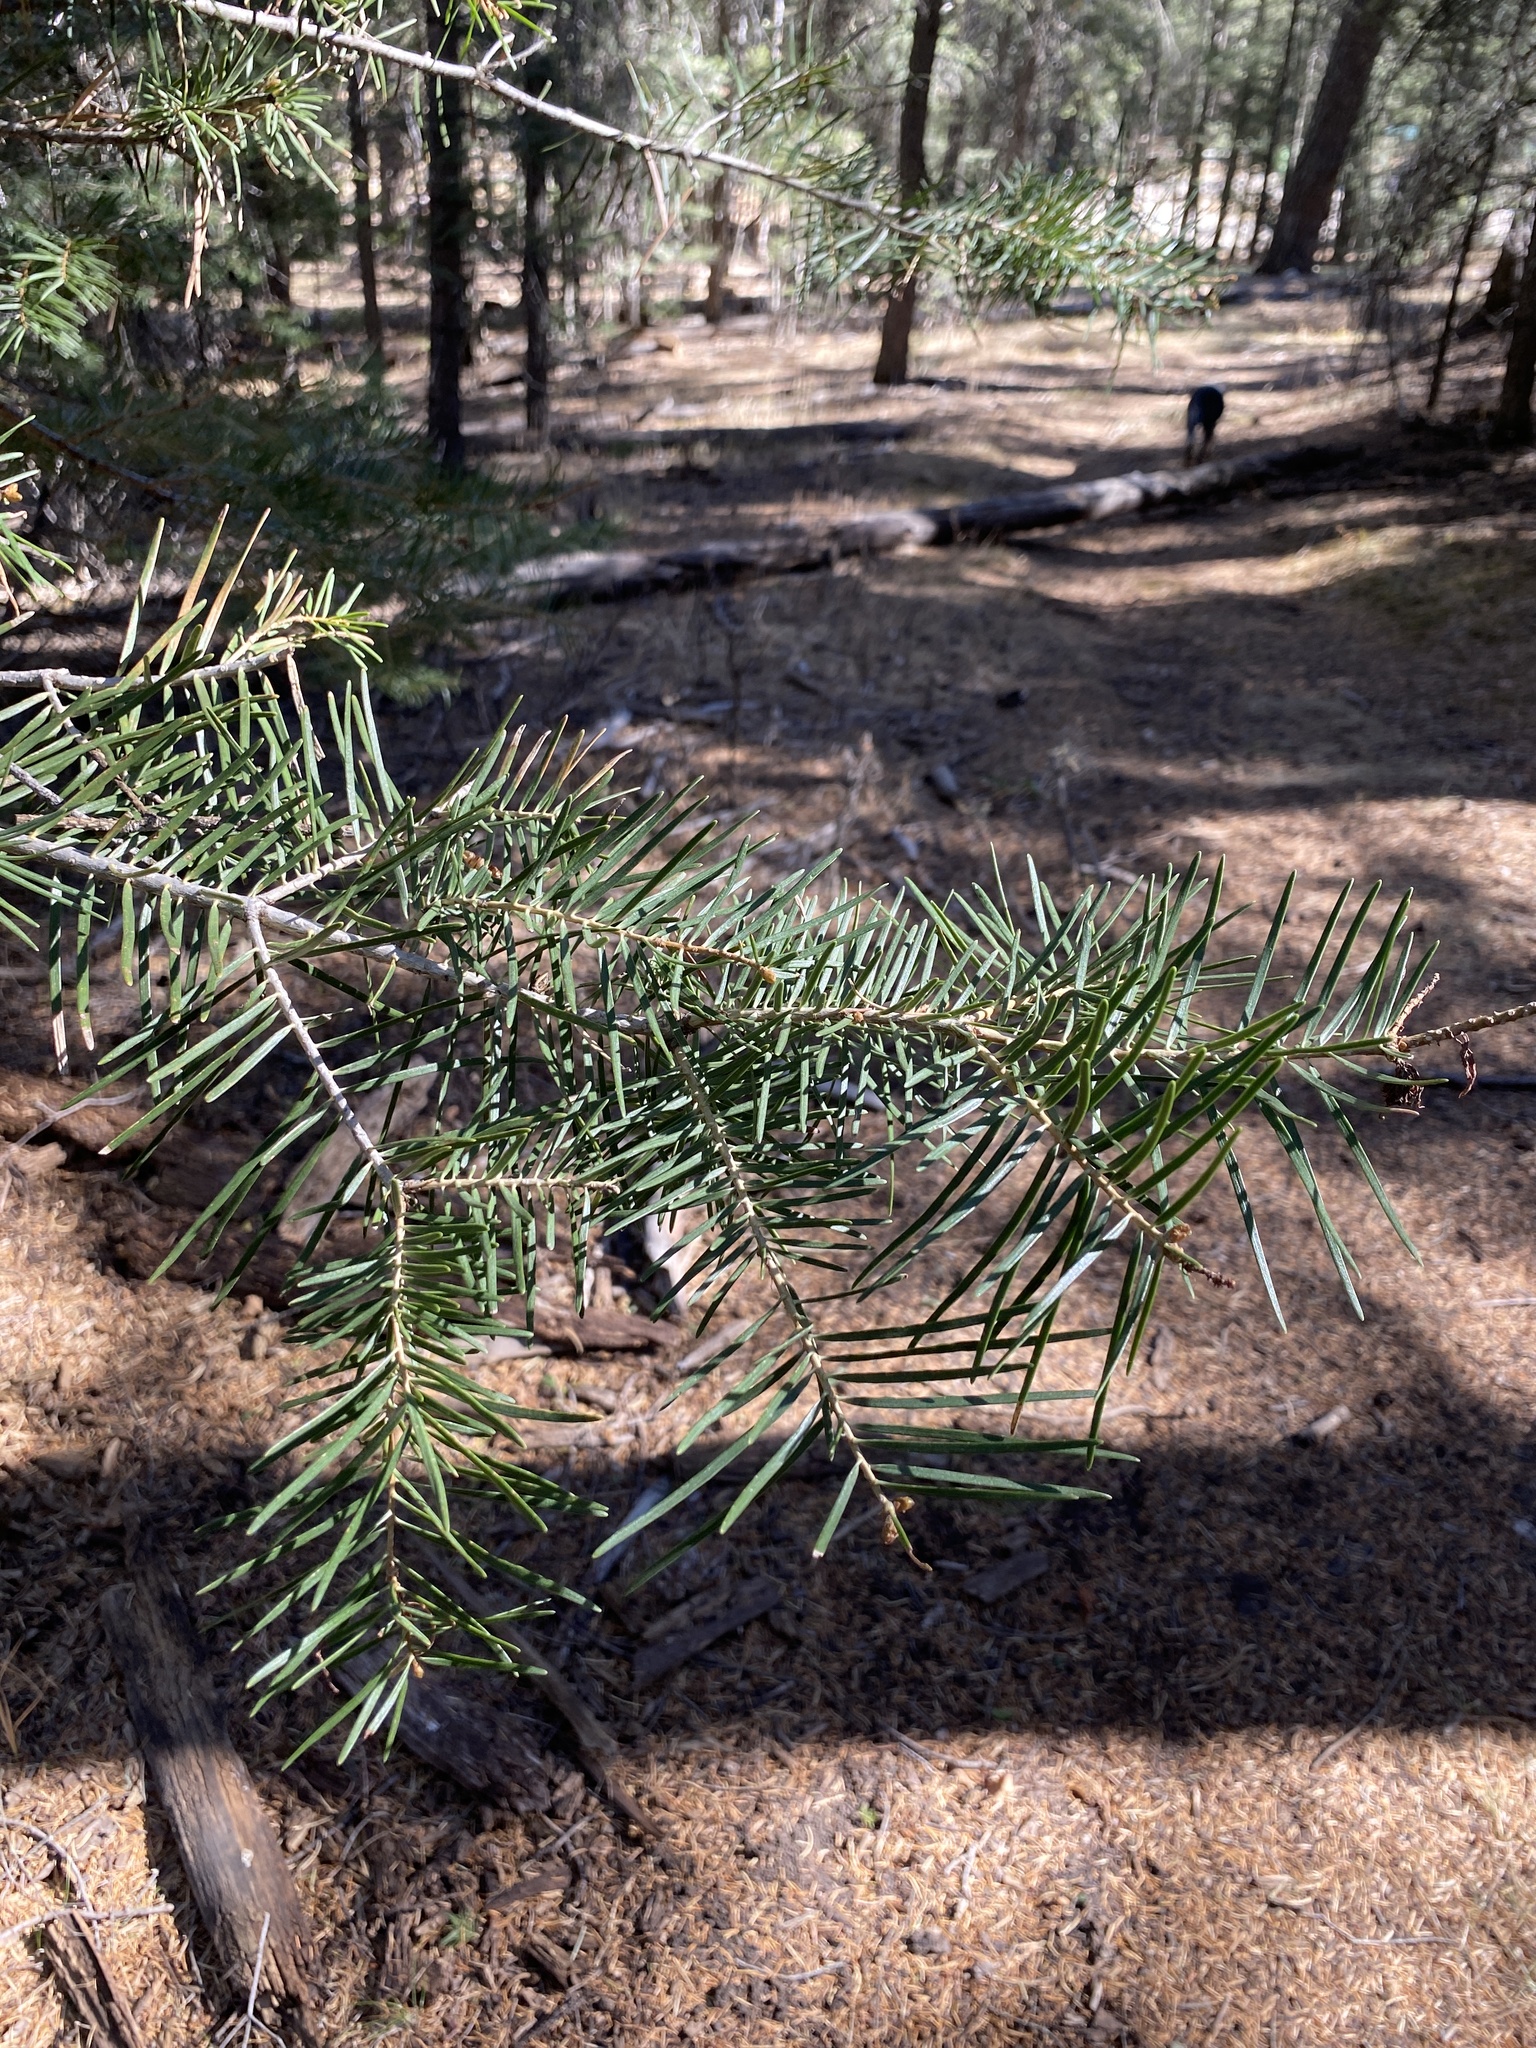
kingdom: Plantae
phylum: Tracheophyta
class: Pinopsida
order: Pinales
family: Pinaceae
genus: Abies
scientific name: Abies concolor
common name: Colorado fir
